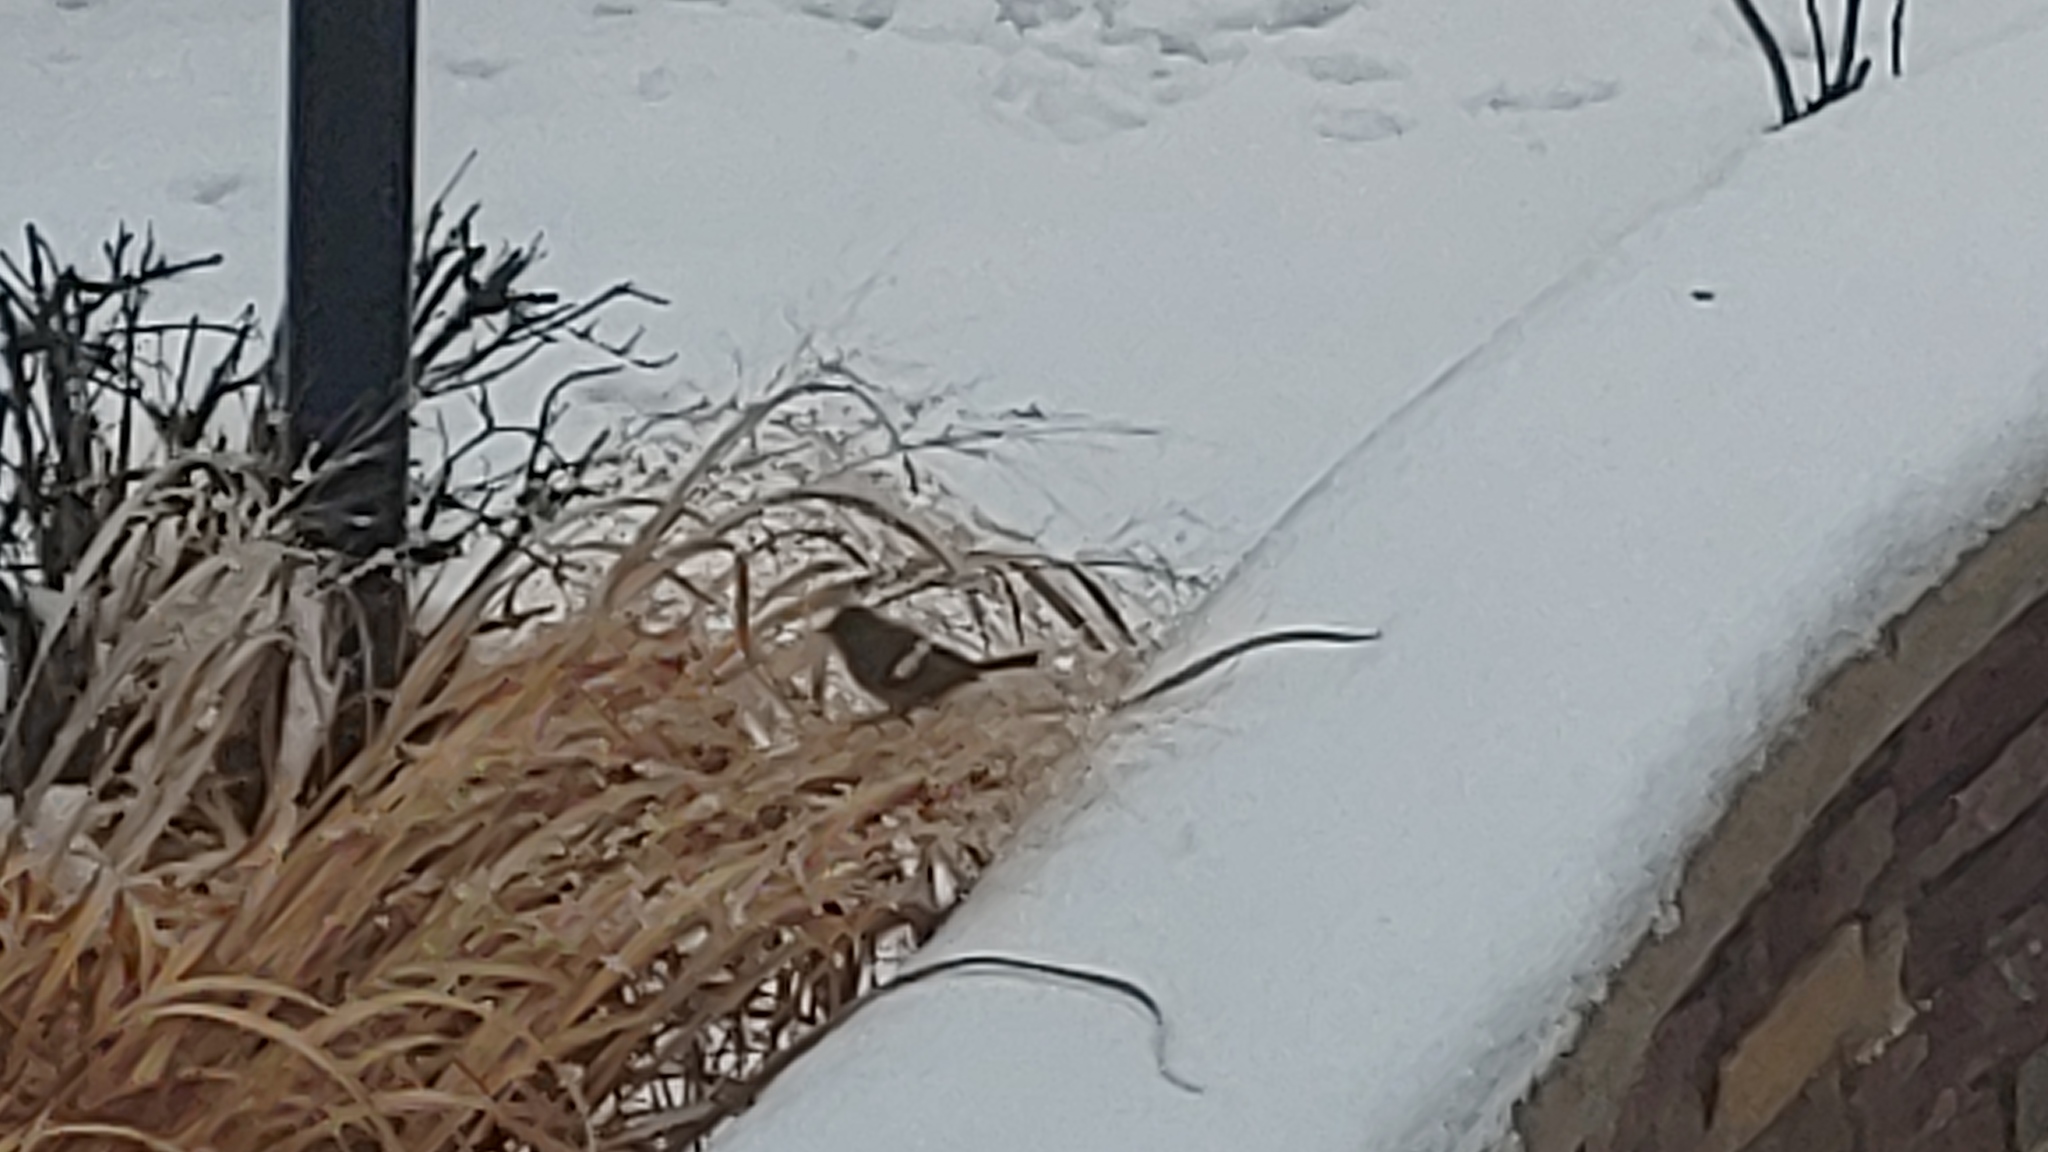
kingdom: Animalia
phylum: Chordata
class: Aves
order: Passeriformes
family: Passerellidae
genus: Junco
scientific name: Junco hyemalis
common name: Dark-eyed junco
